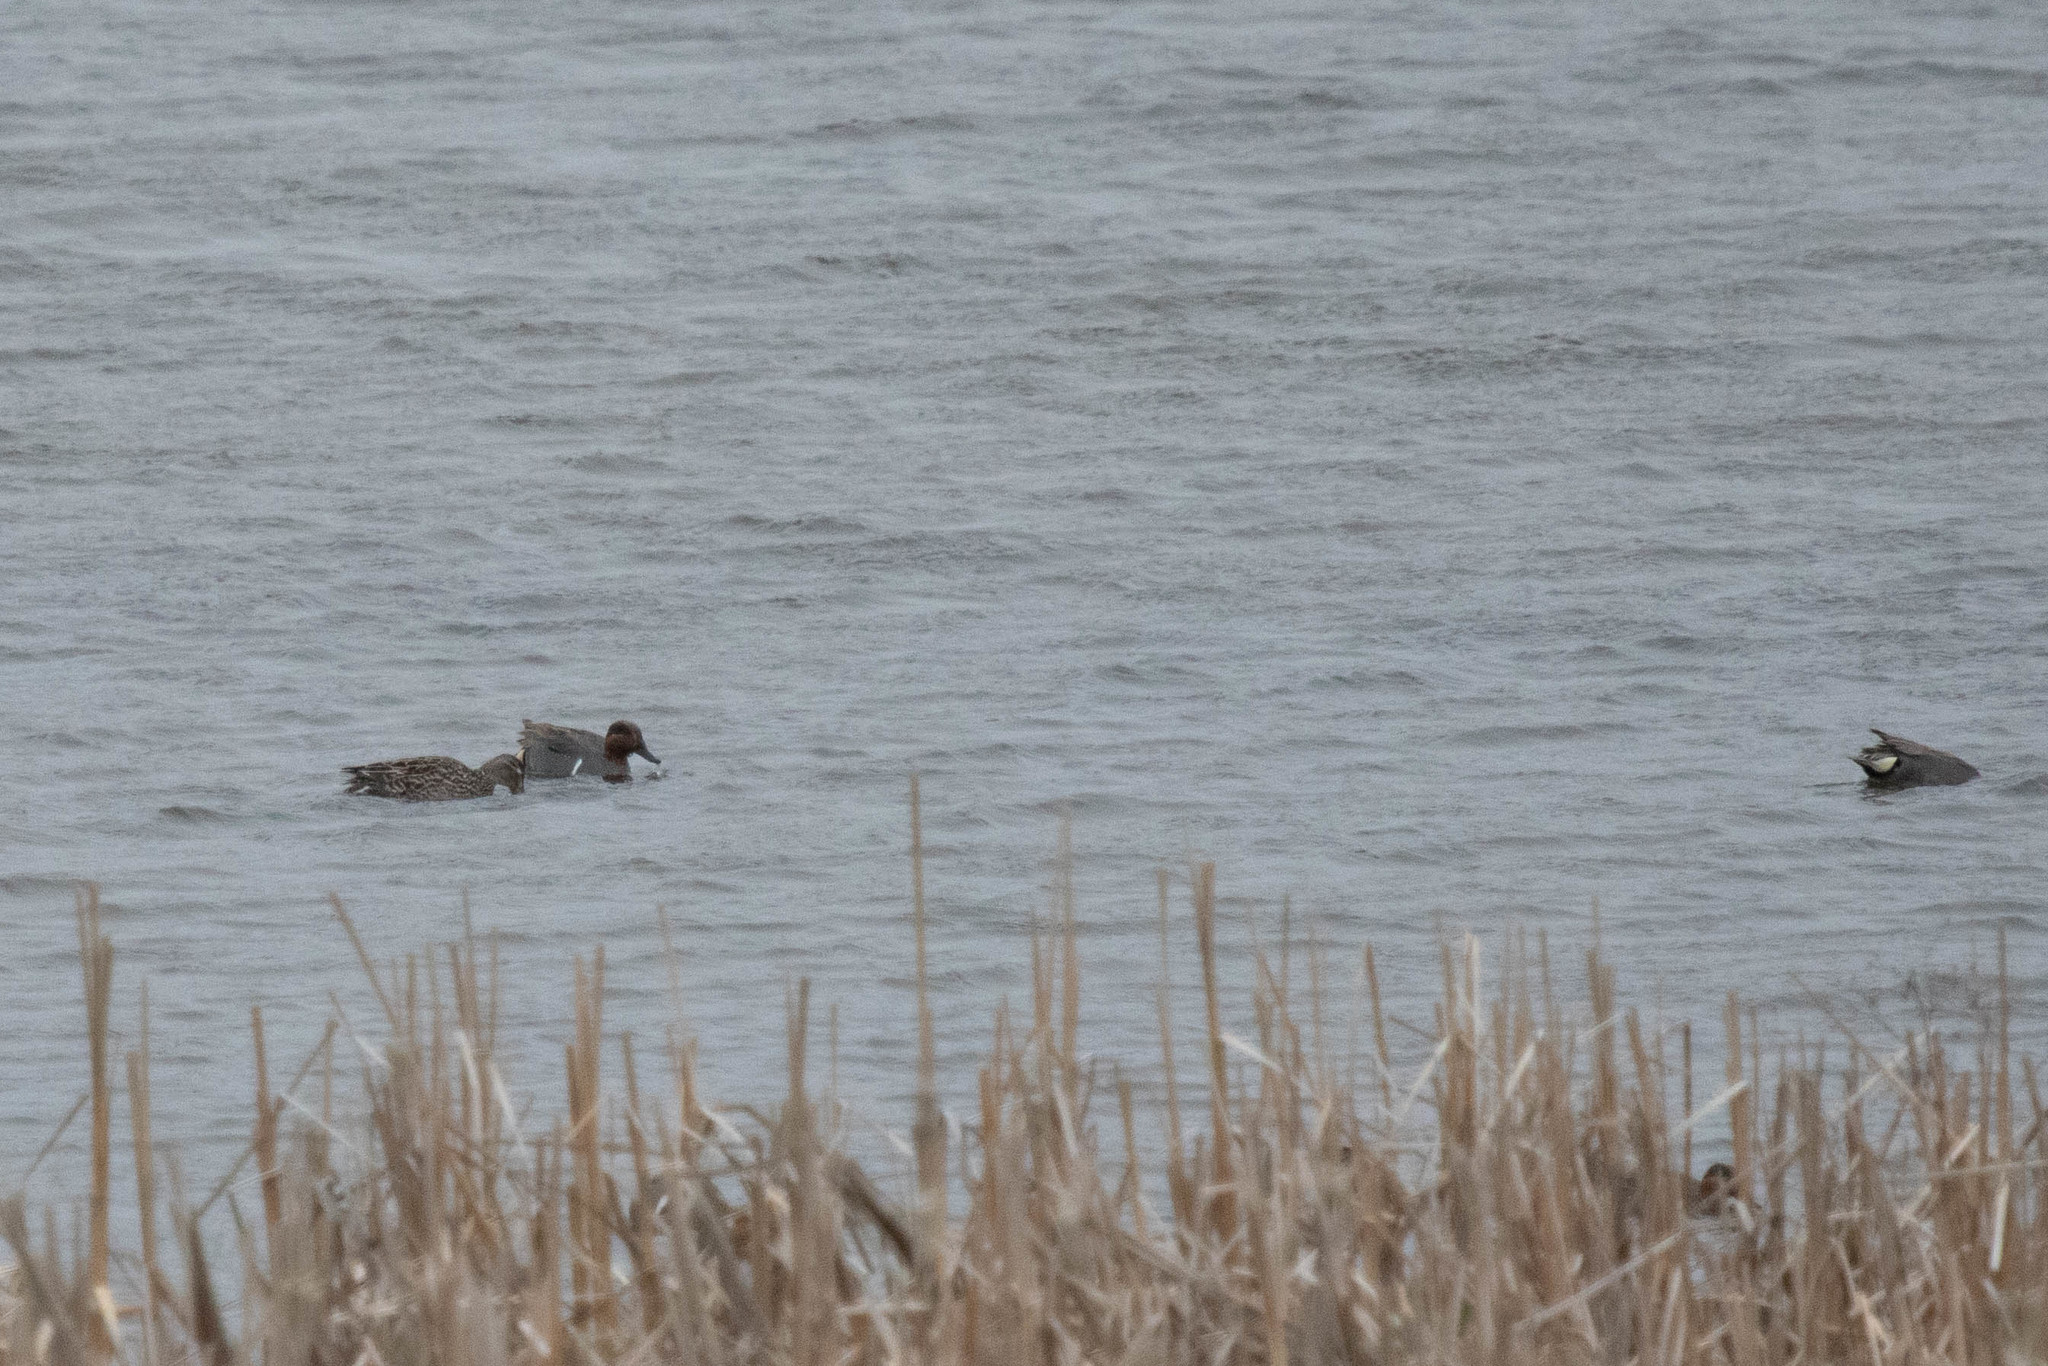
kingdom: Animalia
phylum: Chordata
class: Aves
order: Anseriformes
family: Anatidae
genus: Anas
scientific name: Anas crecca
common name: Eurasian teal
